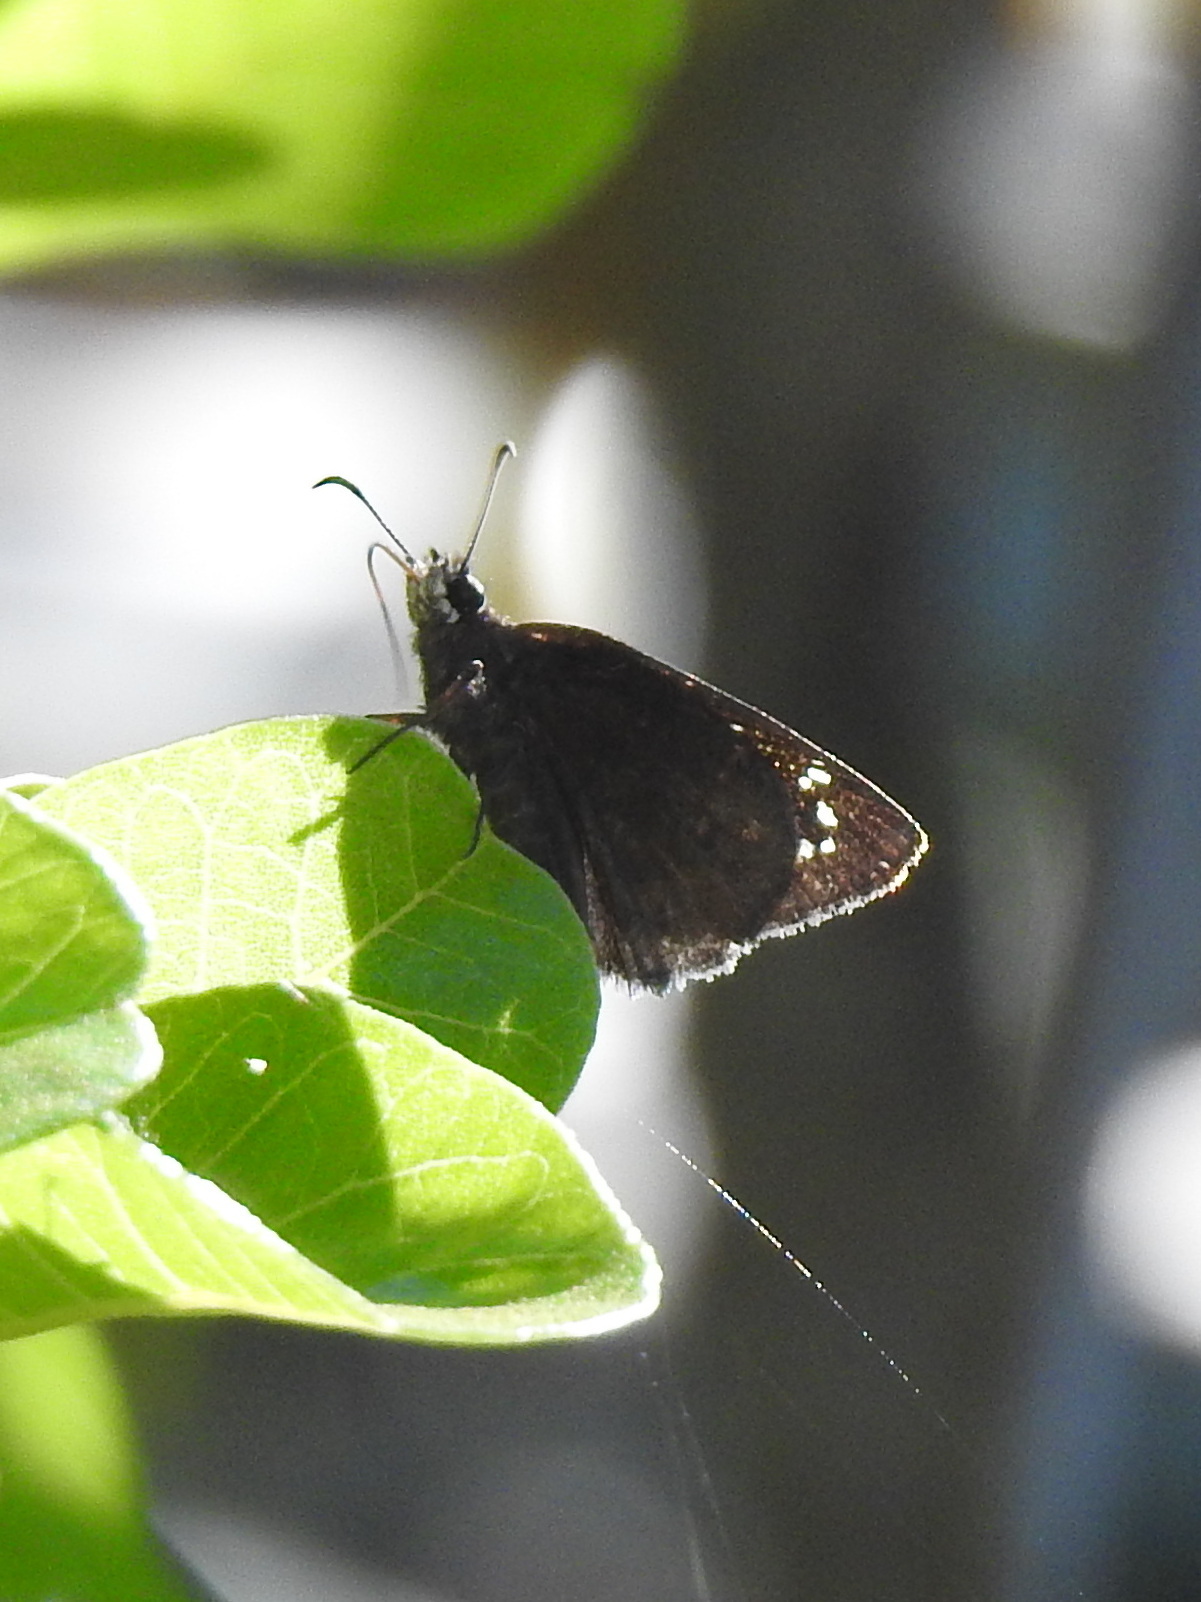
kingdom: Animalia
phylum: Arthropoda
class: Insecta
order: Lepidoptera
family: Hesperiidae
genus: Ephyriades
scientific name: Ephyriades brunnea
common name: Florida duskywing
